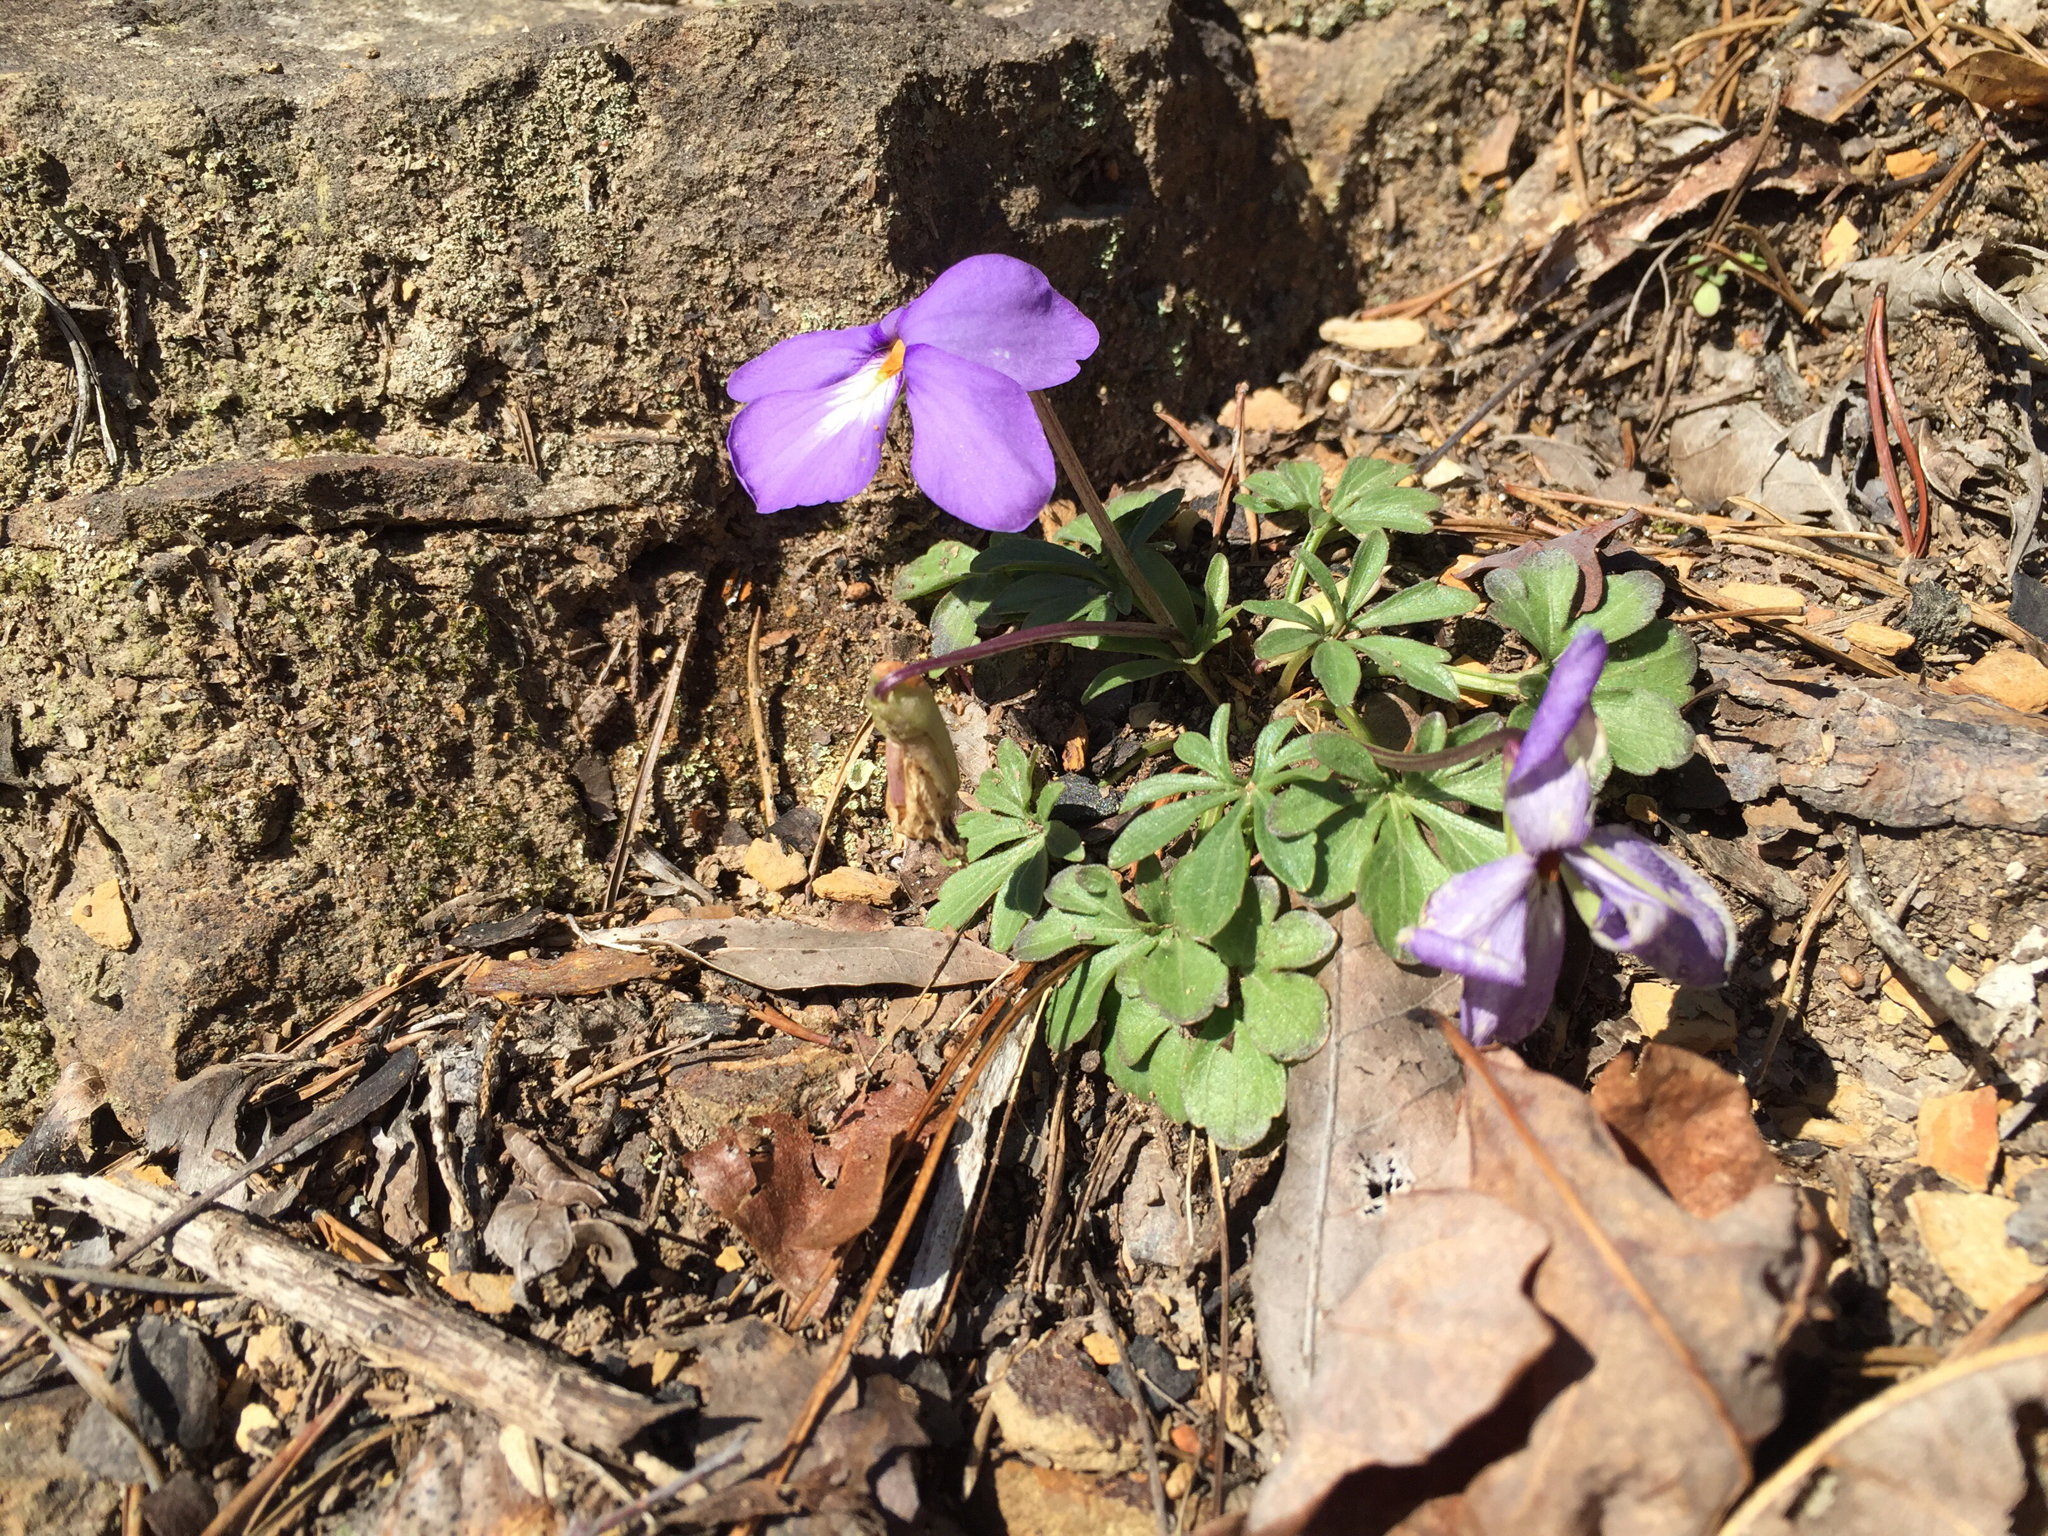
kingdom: Plantae
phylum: Tracheophyta
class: Magnoliopsida
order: Malpighiales
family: Violaceae
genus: Viola
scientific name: Viola pedata
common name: Pansy violet
